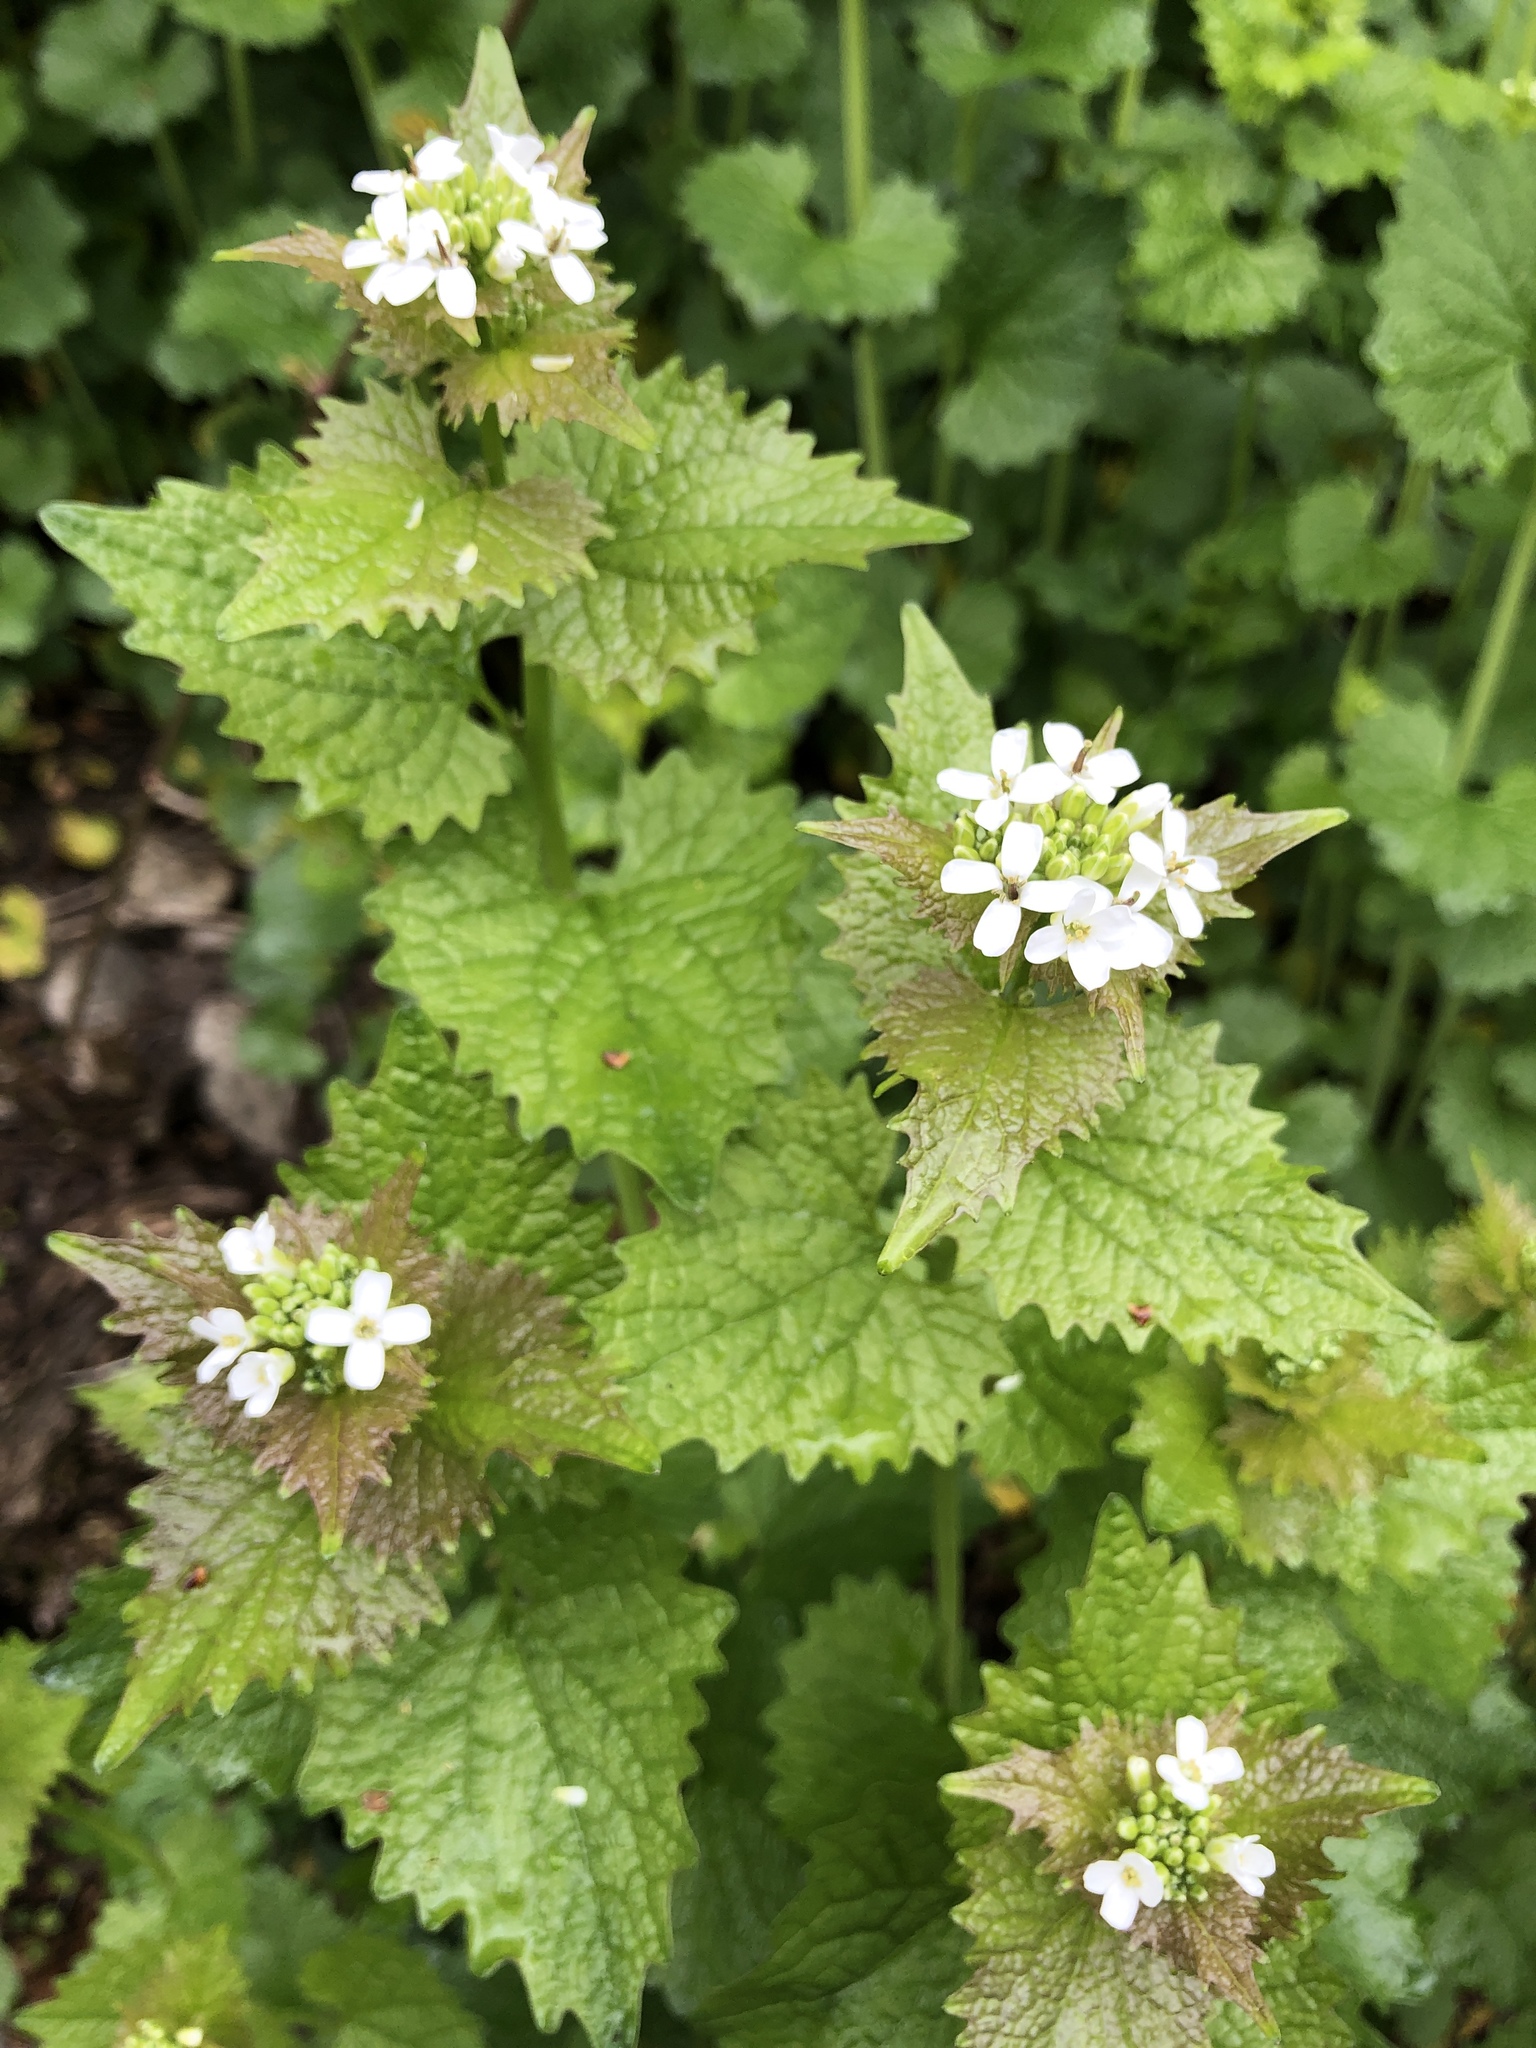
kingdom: Plantae
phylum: Tracheophyta
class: Magnoliopsida
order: Brassicales
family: Brassicaceae
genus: Alliaria
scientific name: Alliaria petiolata
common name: Garlic mustard
